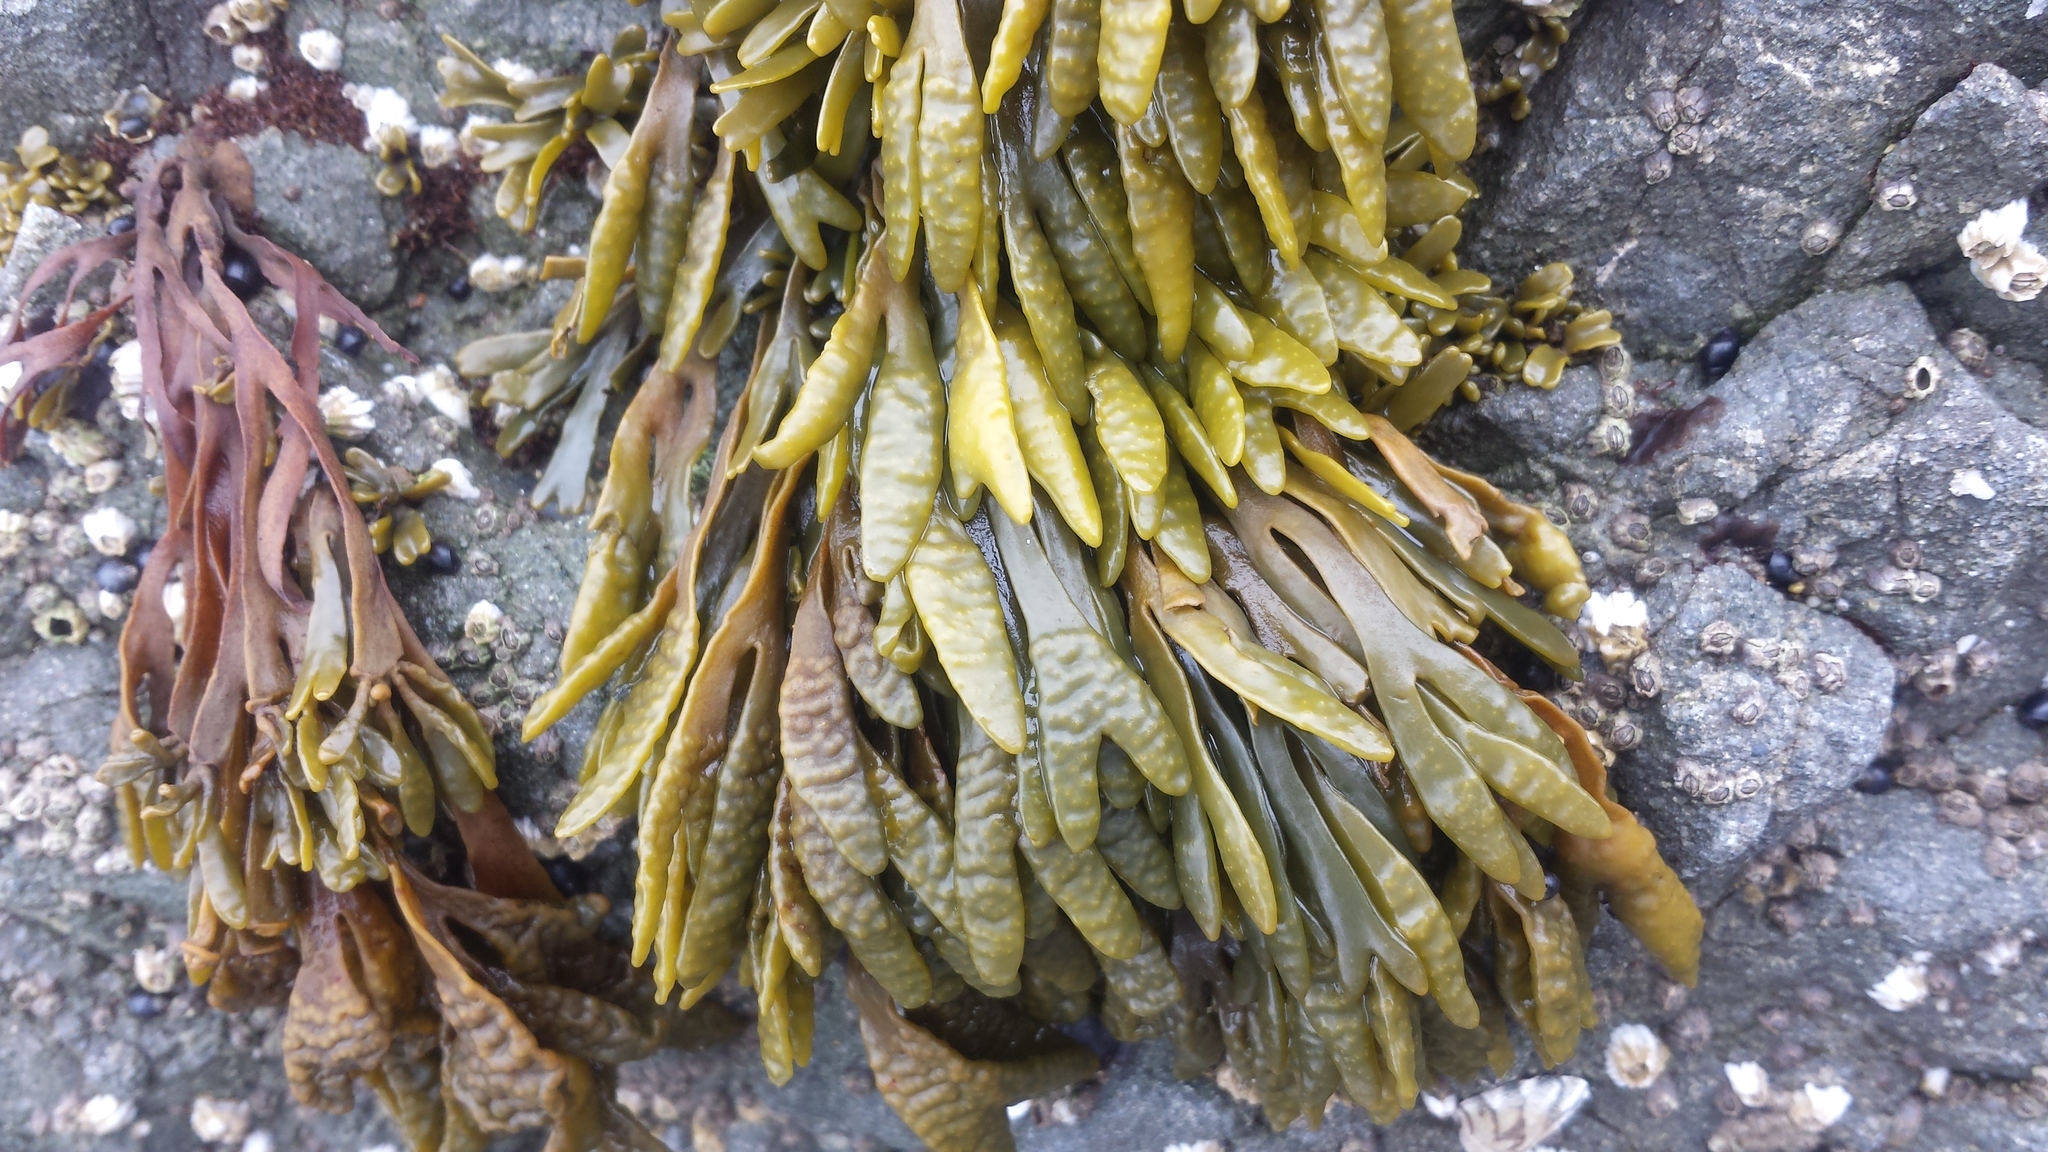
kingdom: Chromista
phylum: Ochrophyta
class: Phaeophyceae
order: Fucales
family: Fucaceae
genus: Pelvetiopsis
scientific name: Pelvetiopsis limitata
